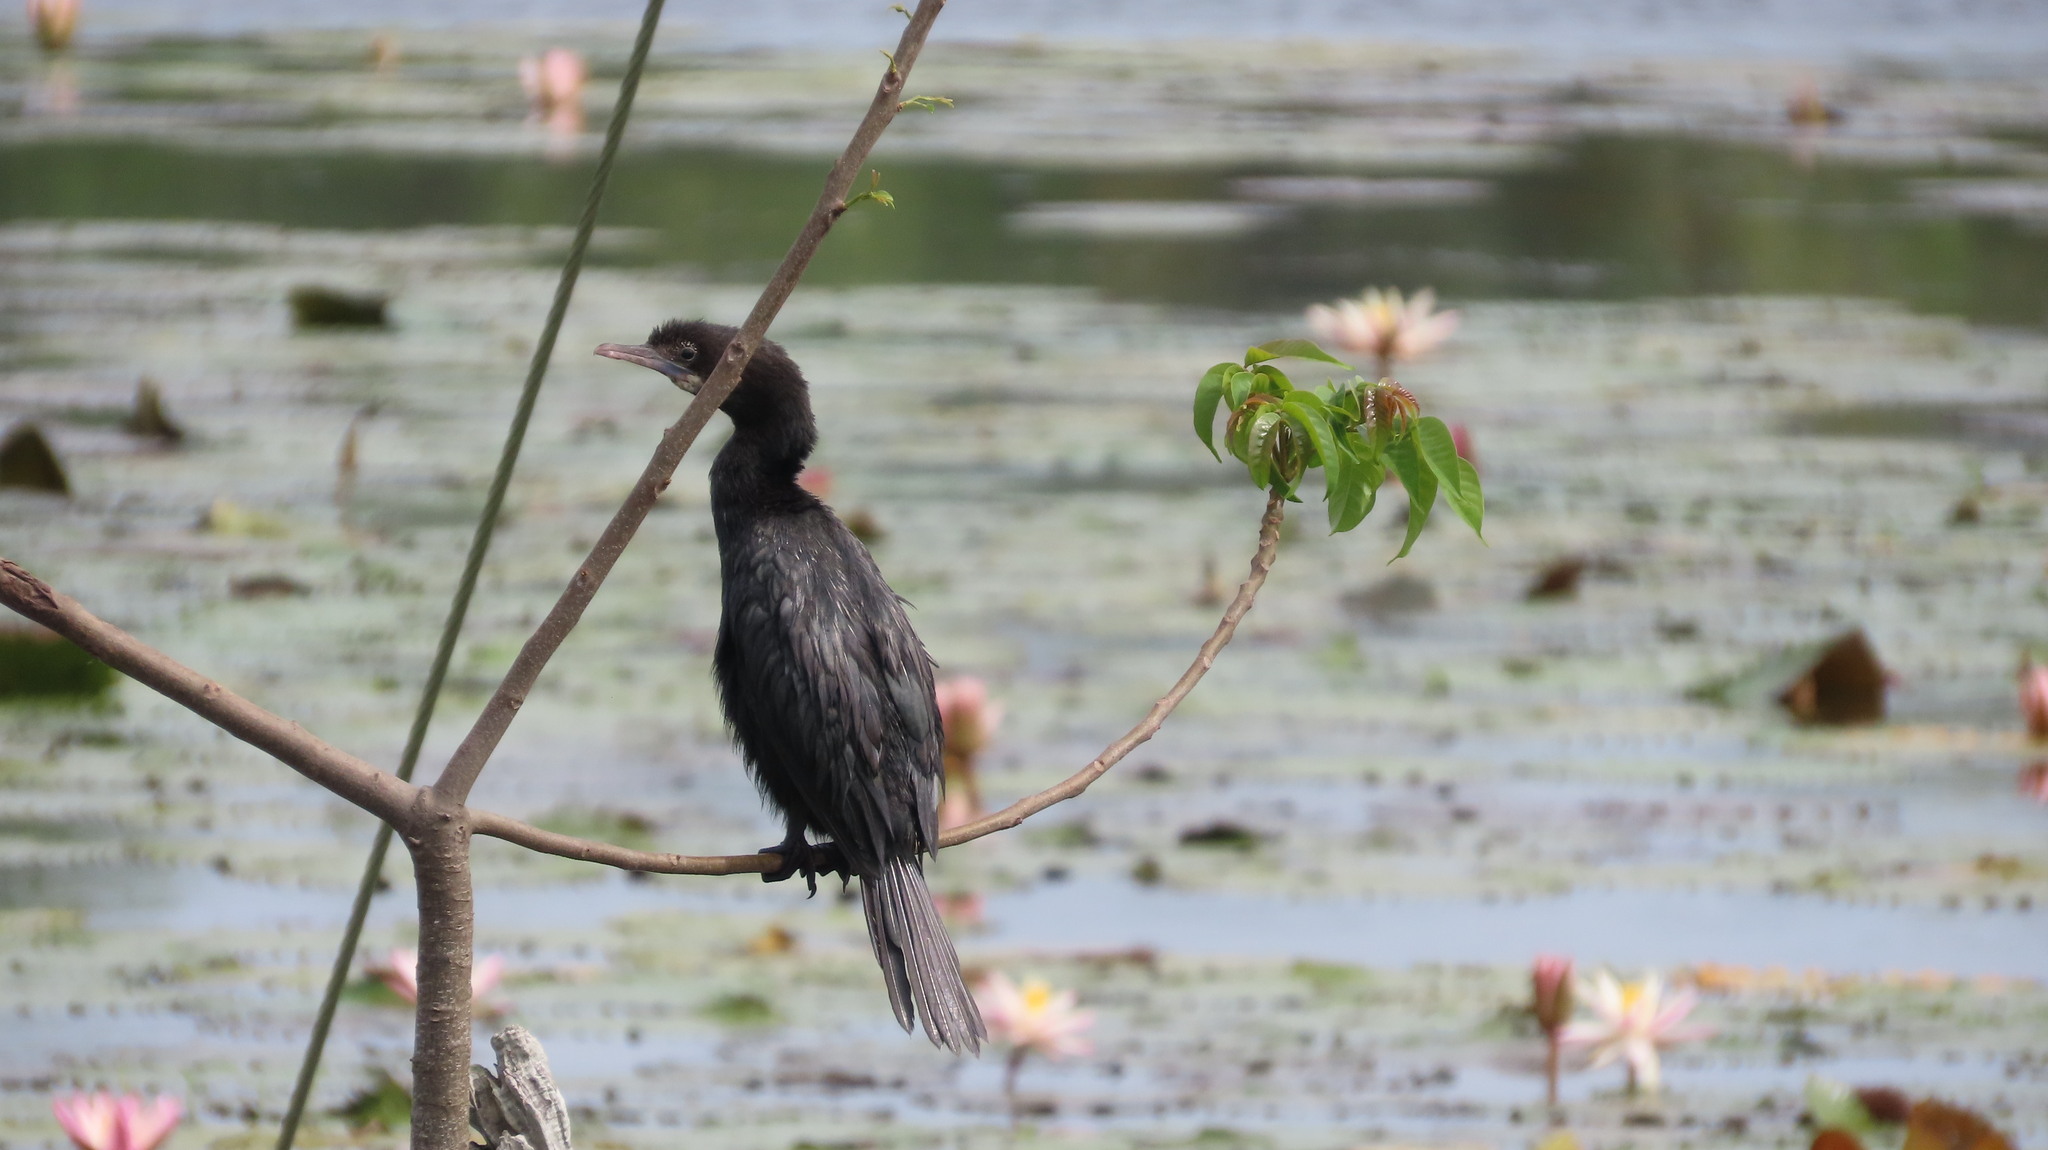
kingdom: Animalia
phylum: Chordata
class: Aves
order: Suliformes
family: Phalacrocoracidae
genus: Microcarbo
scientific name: Microcarbo niger
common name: Little cormorant
